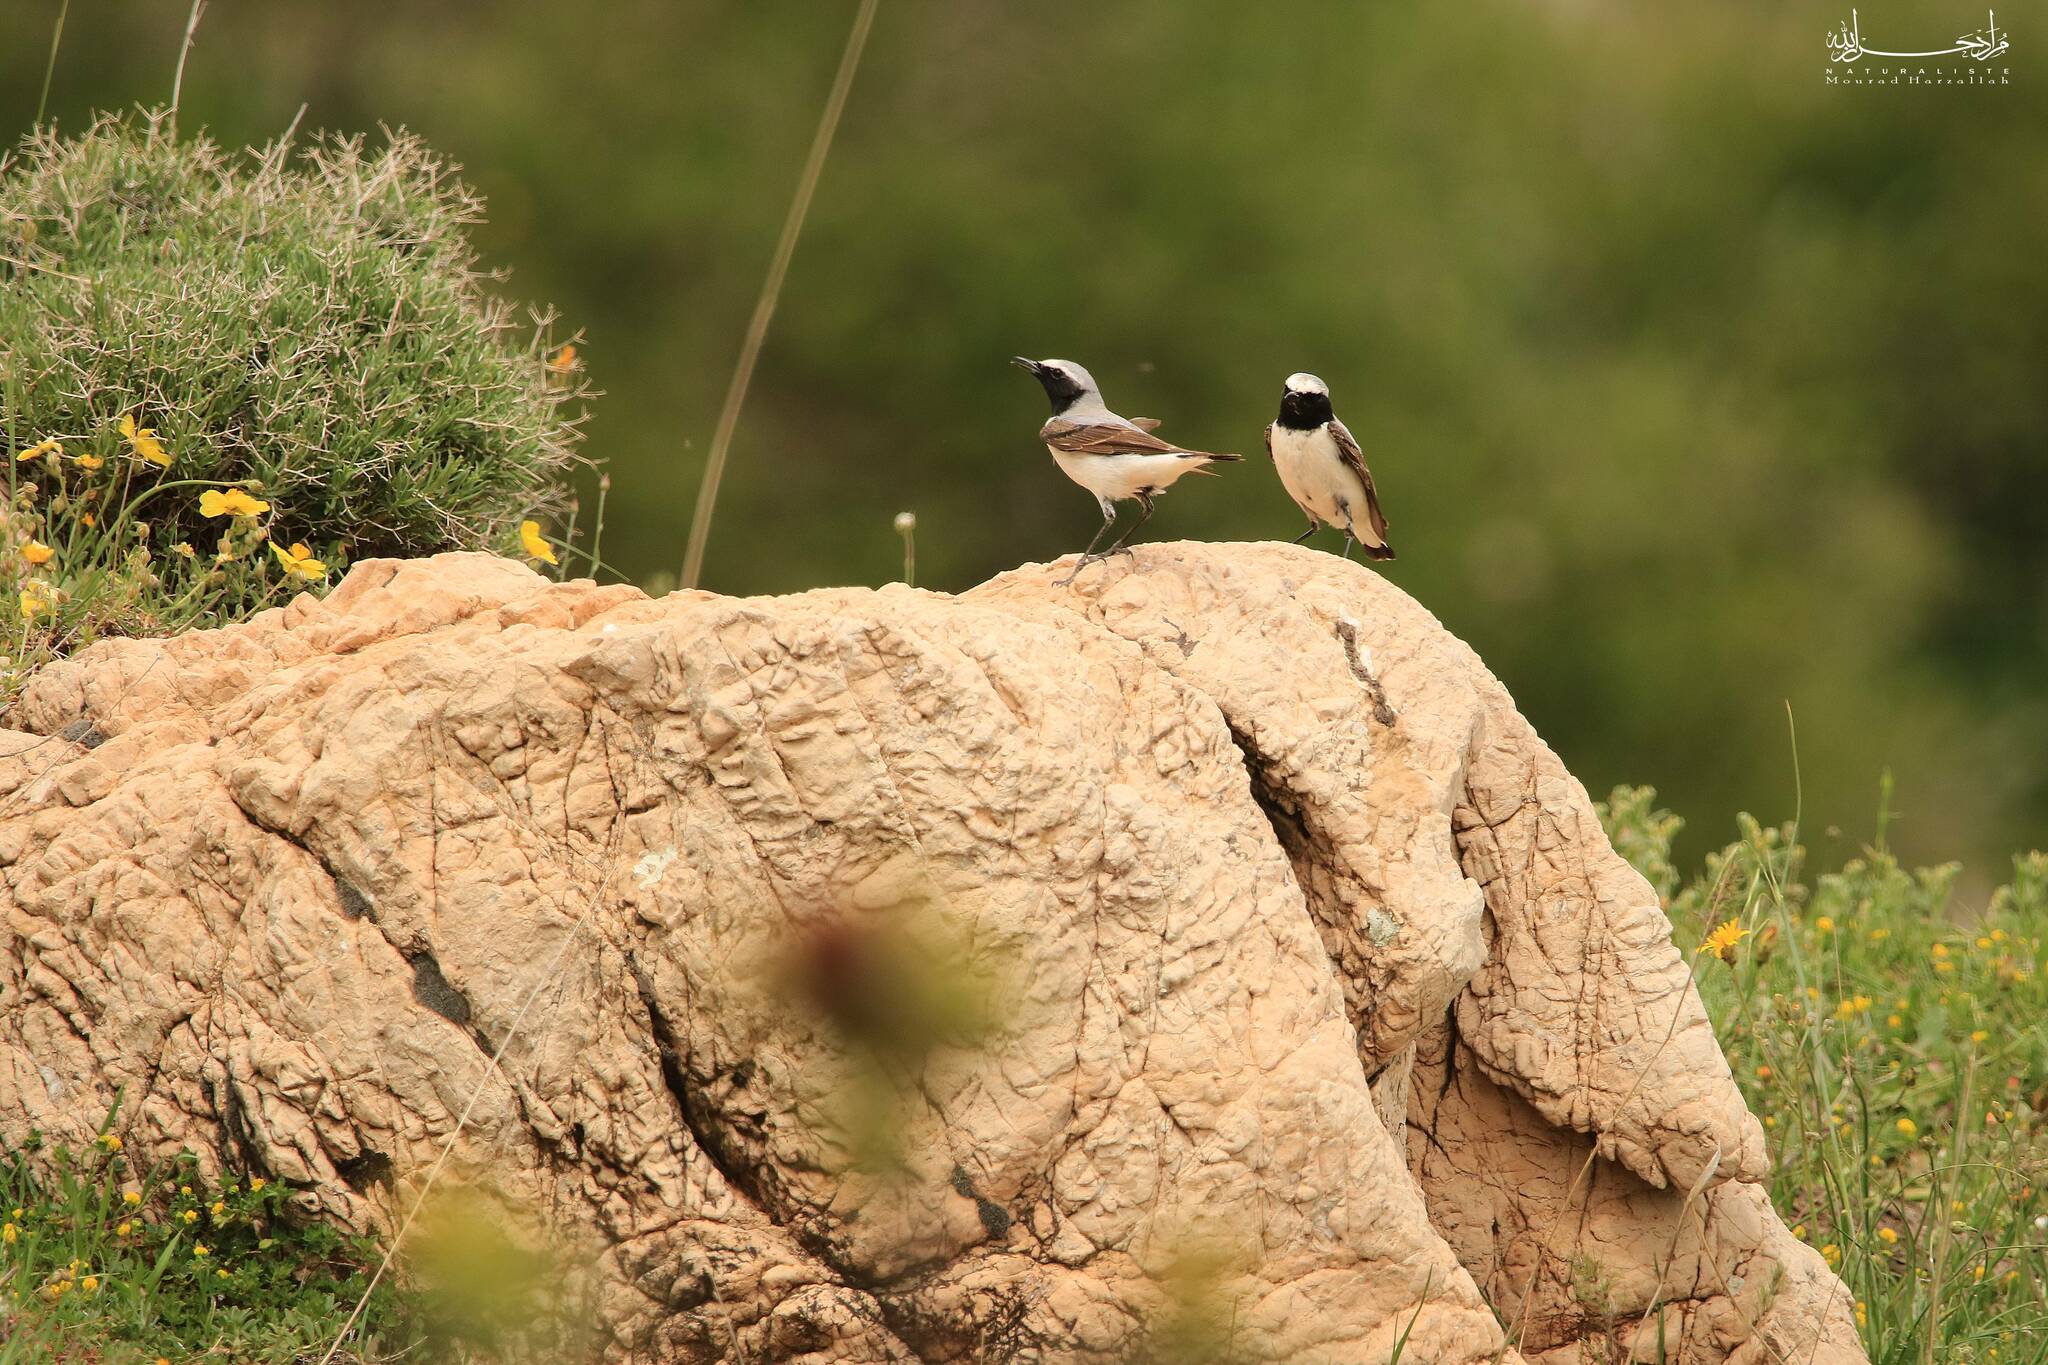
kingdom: Animalia
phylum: Chordata
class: Aves
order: Passeriformes
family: Muscicapidae
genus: Oenanthe
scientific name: Oenanthe oenanthe
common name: Northern wheatear
